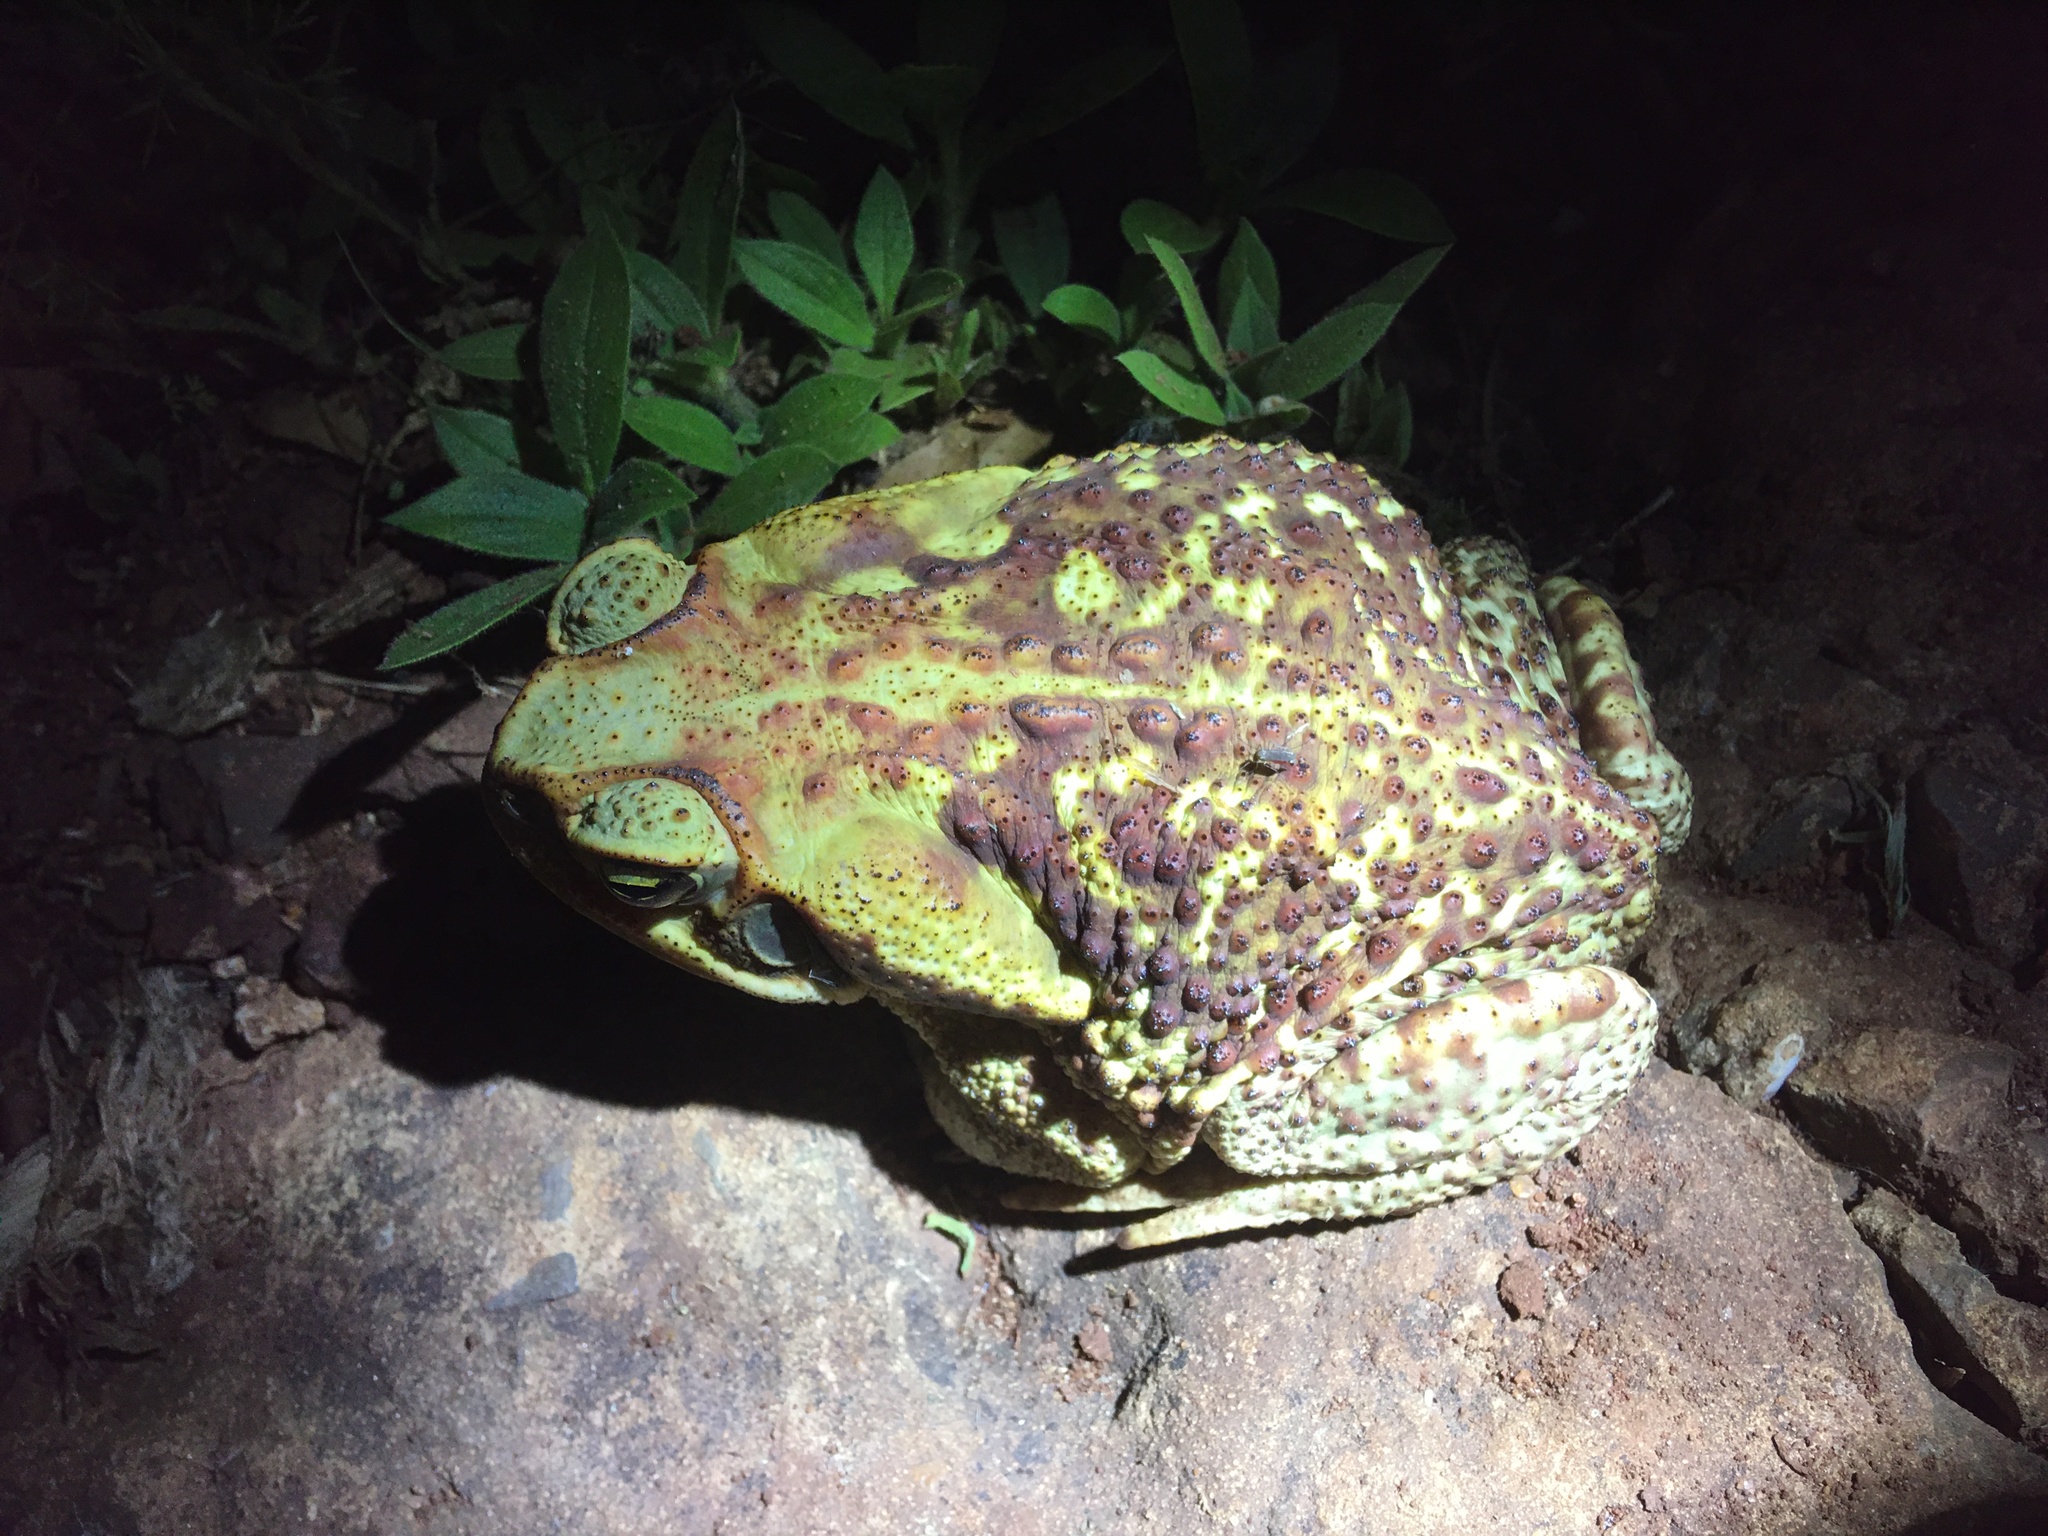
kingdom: Animalia
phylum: Chordata
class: Amphibia
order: Anura
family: Bufonidae
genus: Rhinella
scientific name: Rhinella diptycha
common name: Cope's toad
